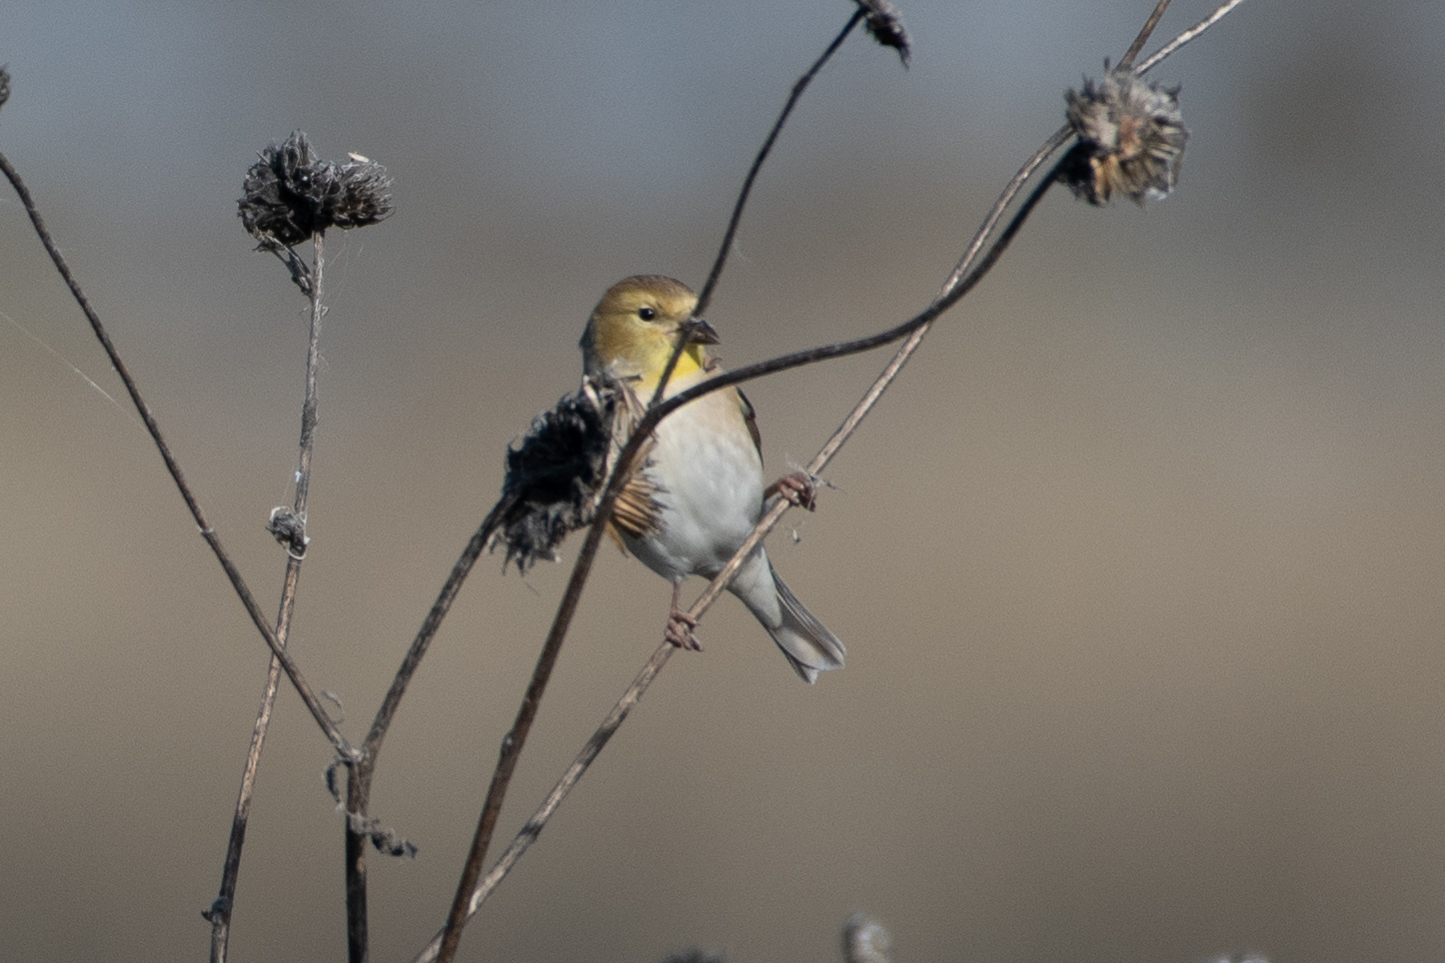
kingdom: Animalia
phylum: Chordata
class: Aves
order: Passeriformes
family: Fringillidae
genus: Spinus
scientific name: Spinus tristis
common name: American goldfinch
